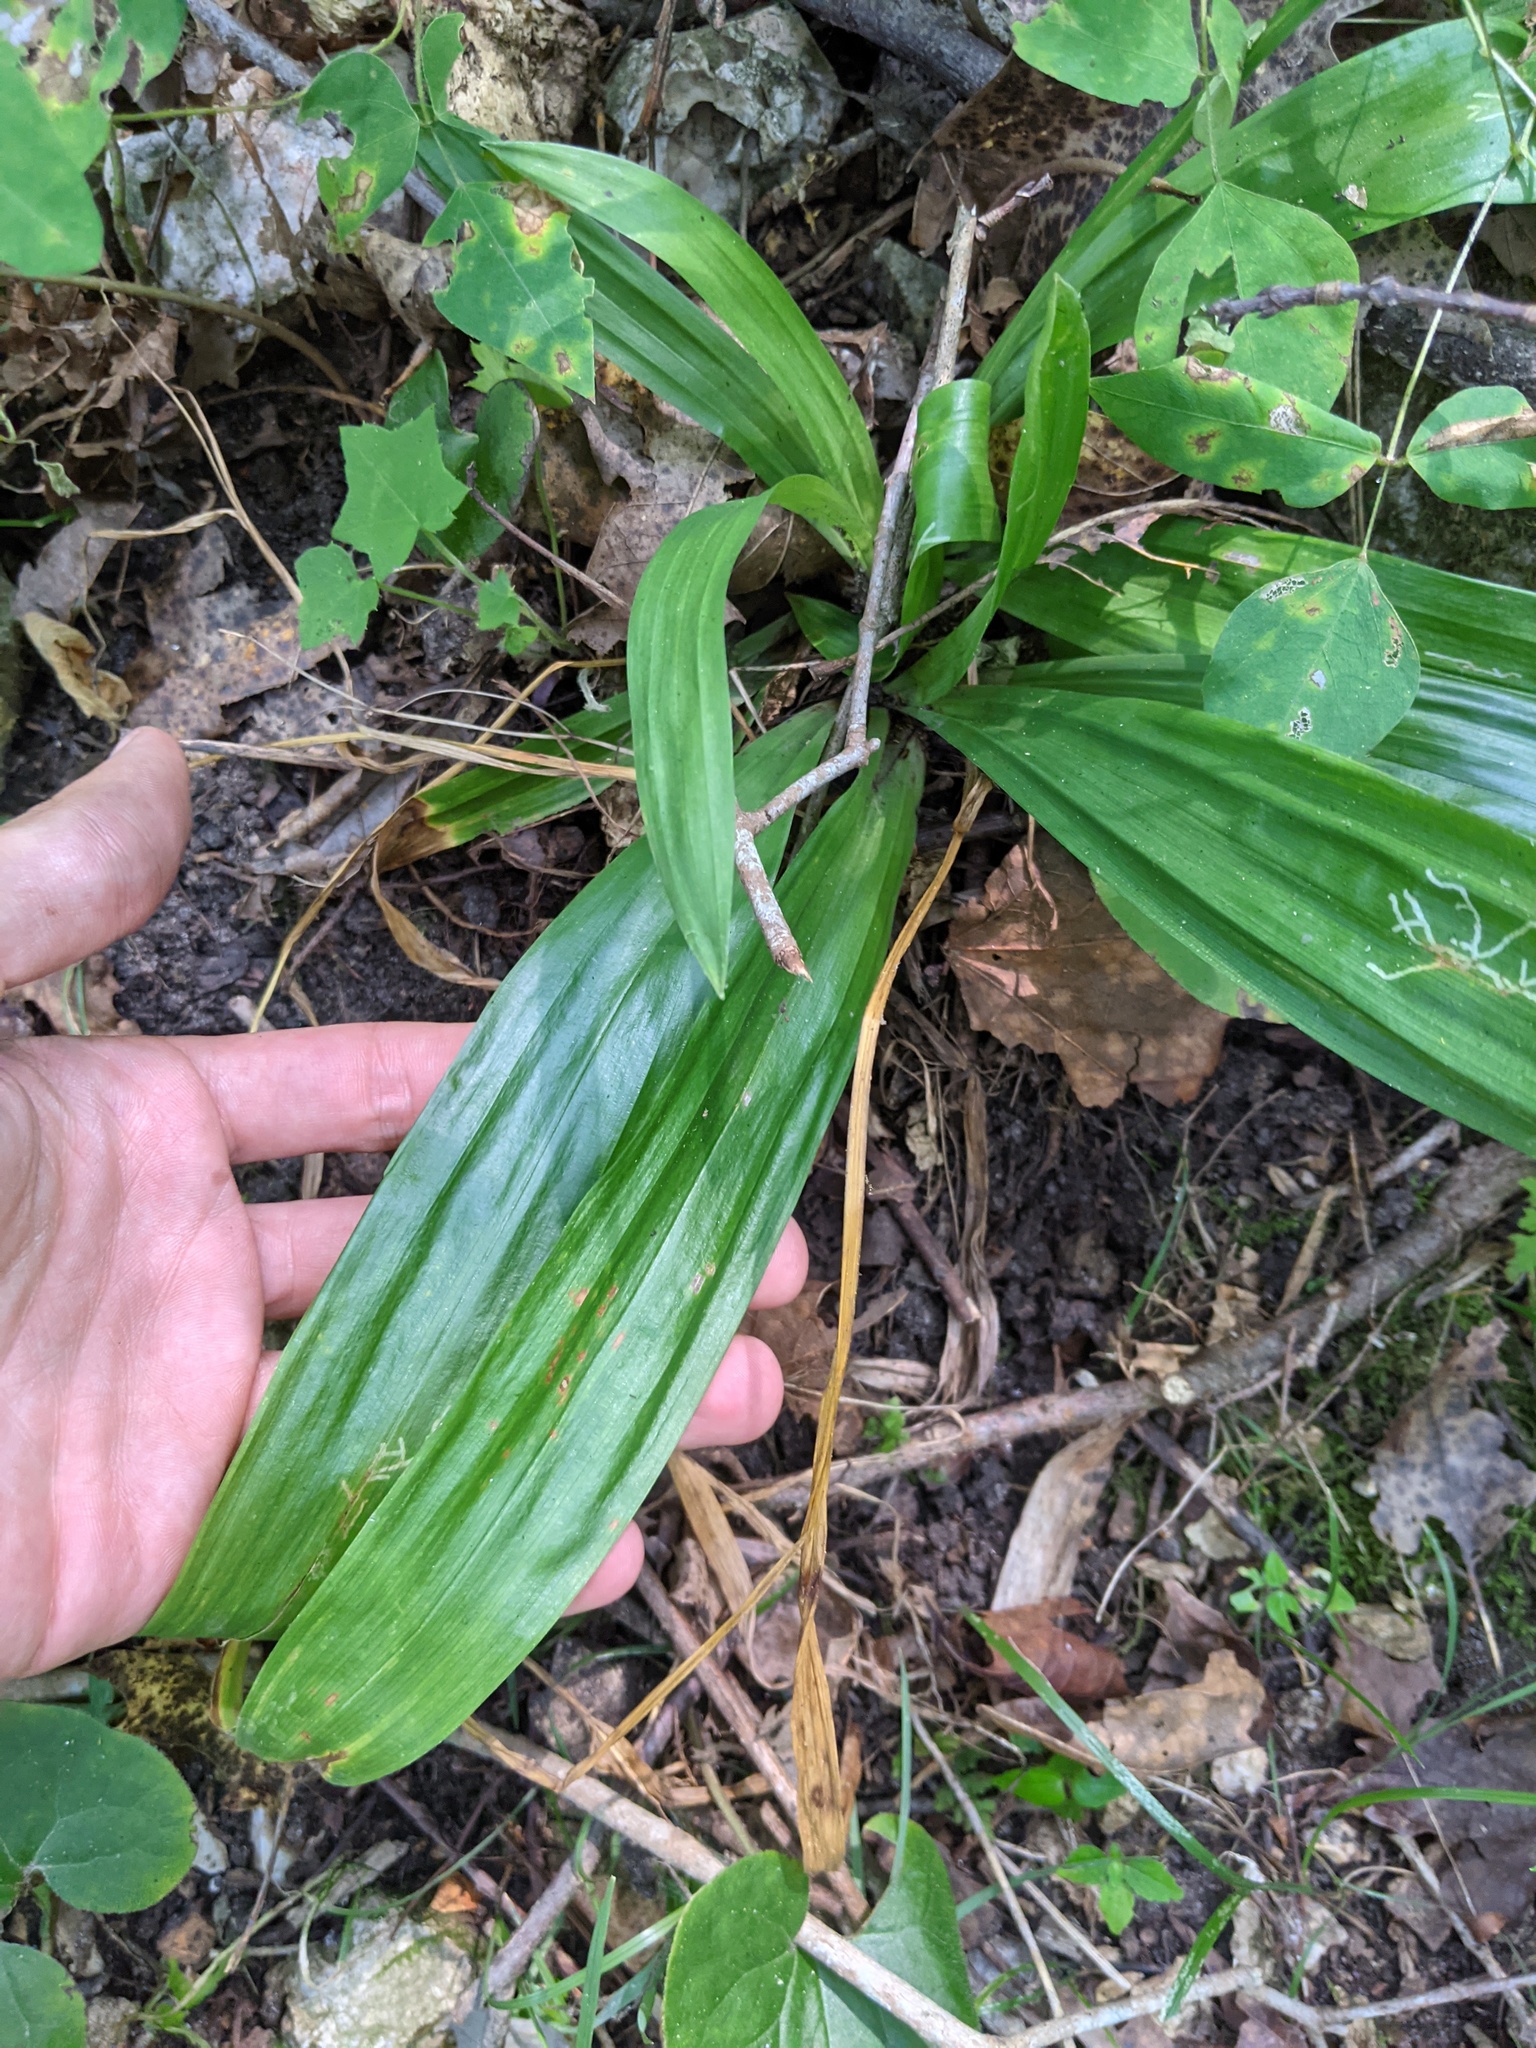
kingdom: Plantae
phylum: Tracheophyta
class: Liliopsida
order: Poales
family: Cyperaceae
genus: Carex
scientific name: Carex albursina
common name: Blunt-scale wood sedge
